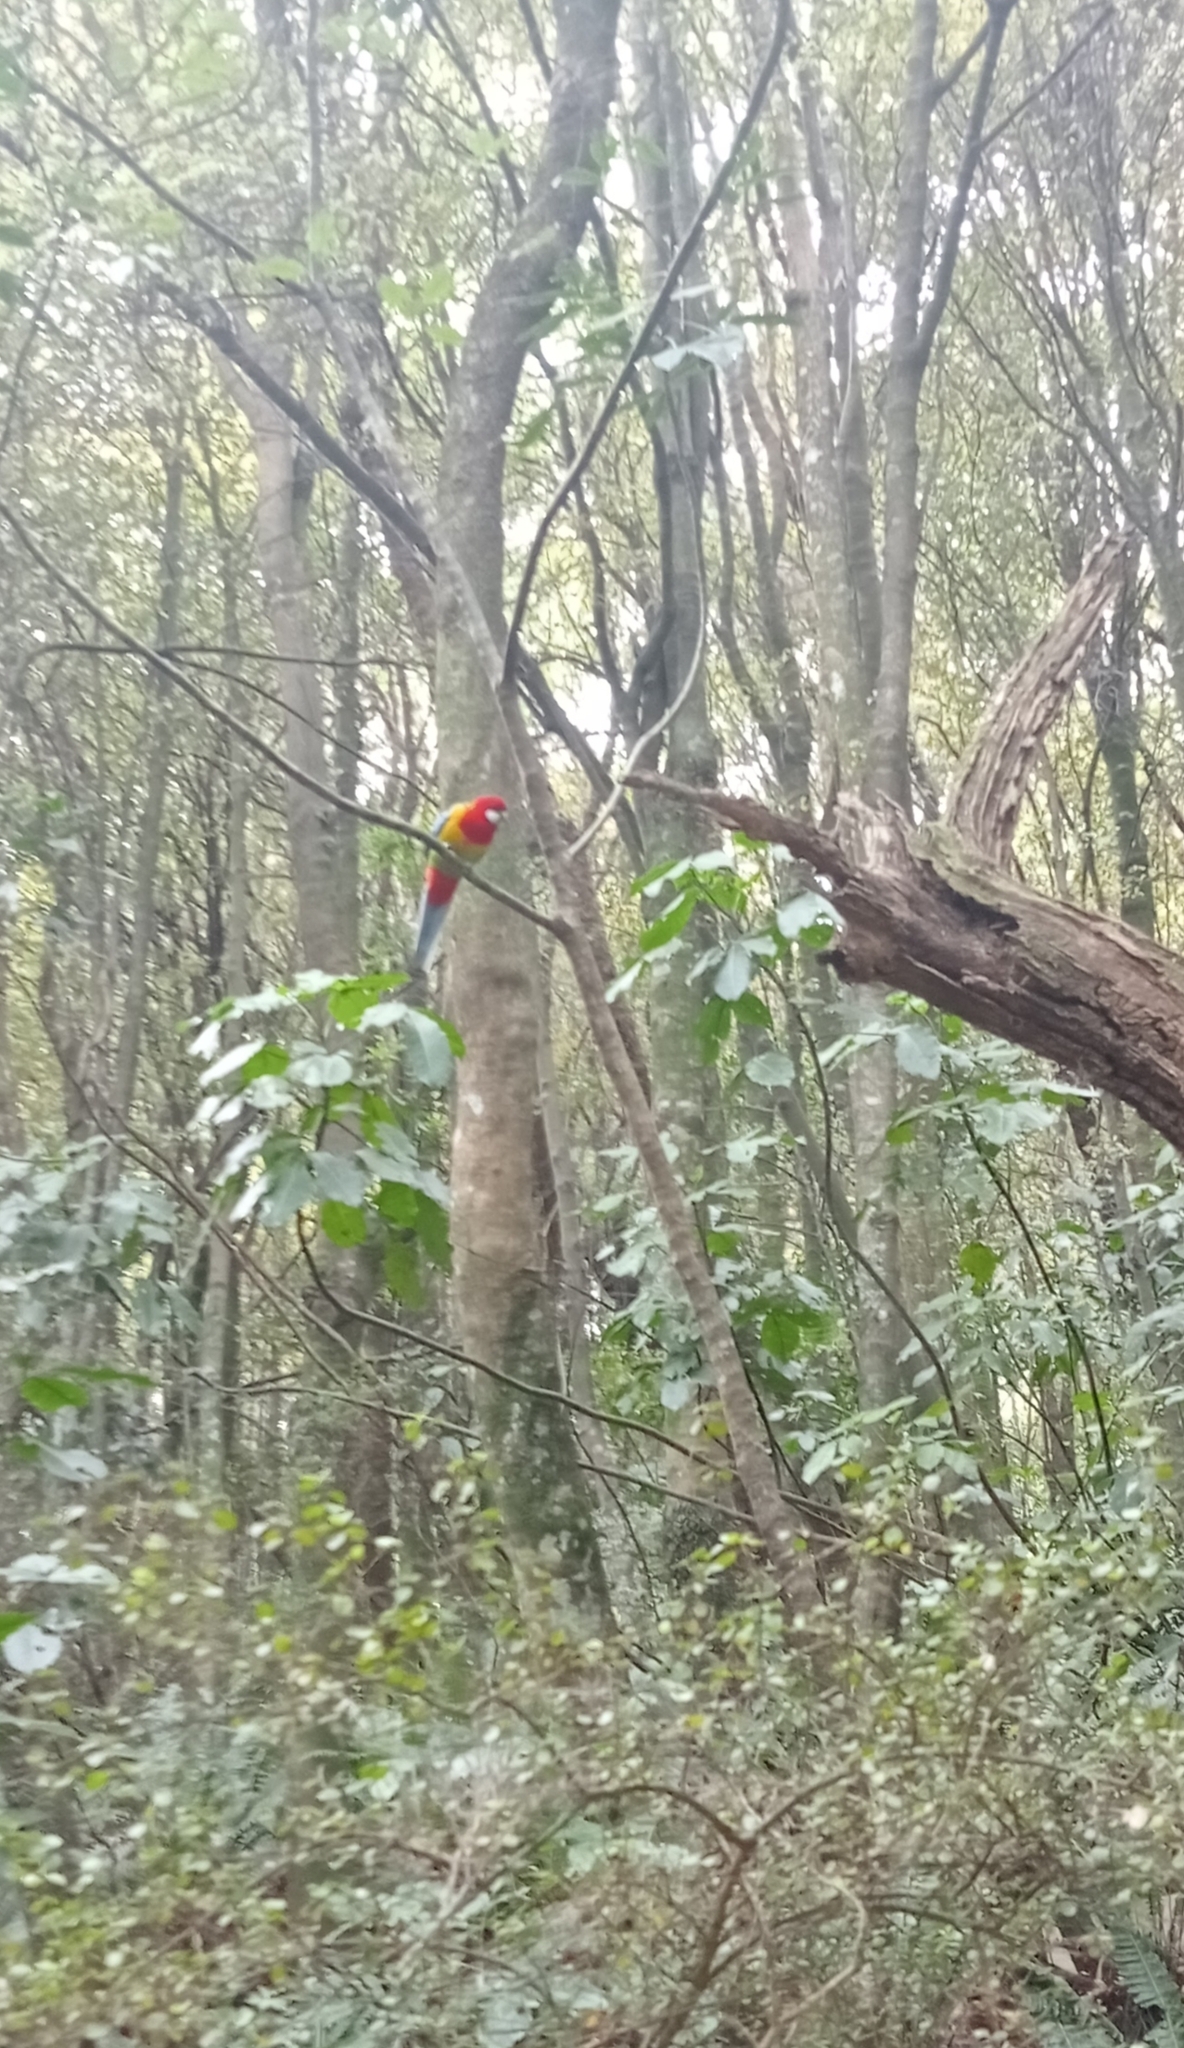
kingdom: Animalia
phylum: Chordata
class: Aves
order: Psittaciformes
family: Psittacidae
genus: Platycercus
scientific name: Platycercus eximius
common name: Eastern rosella
